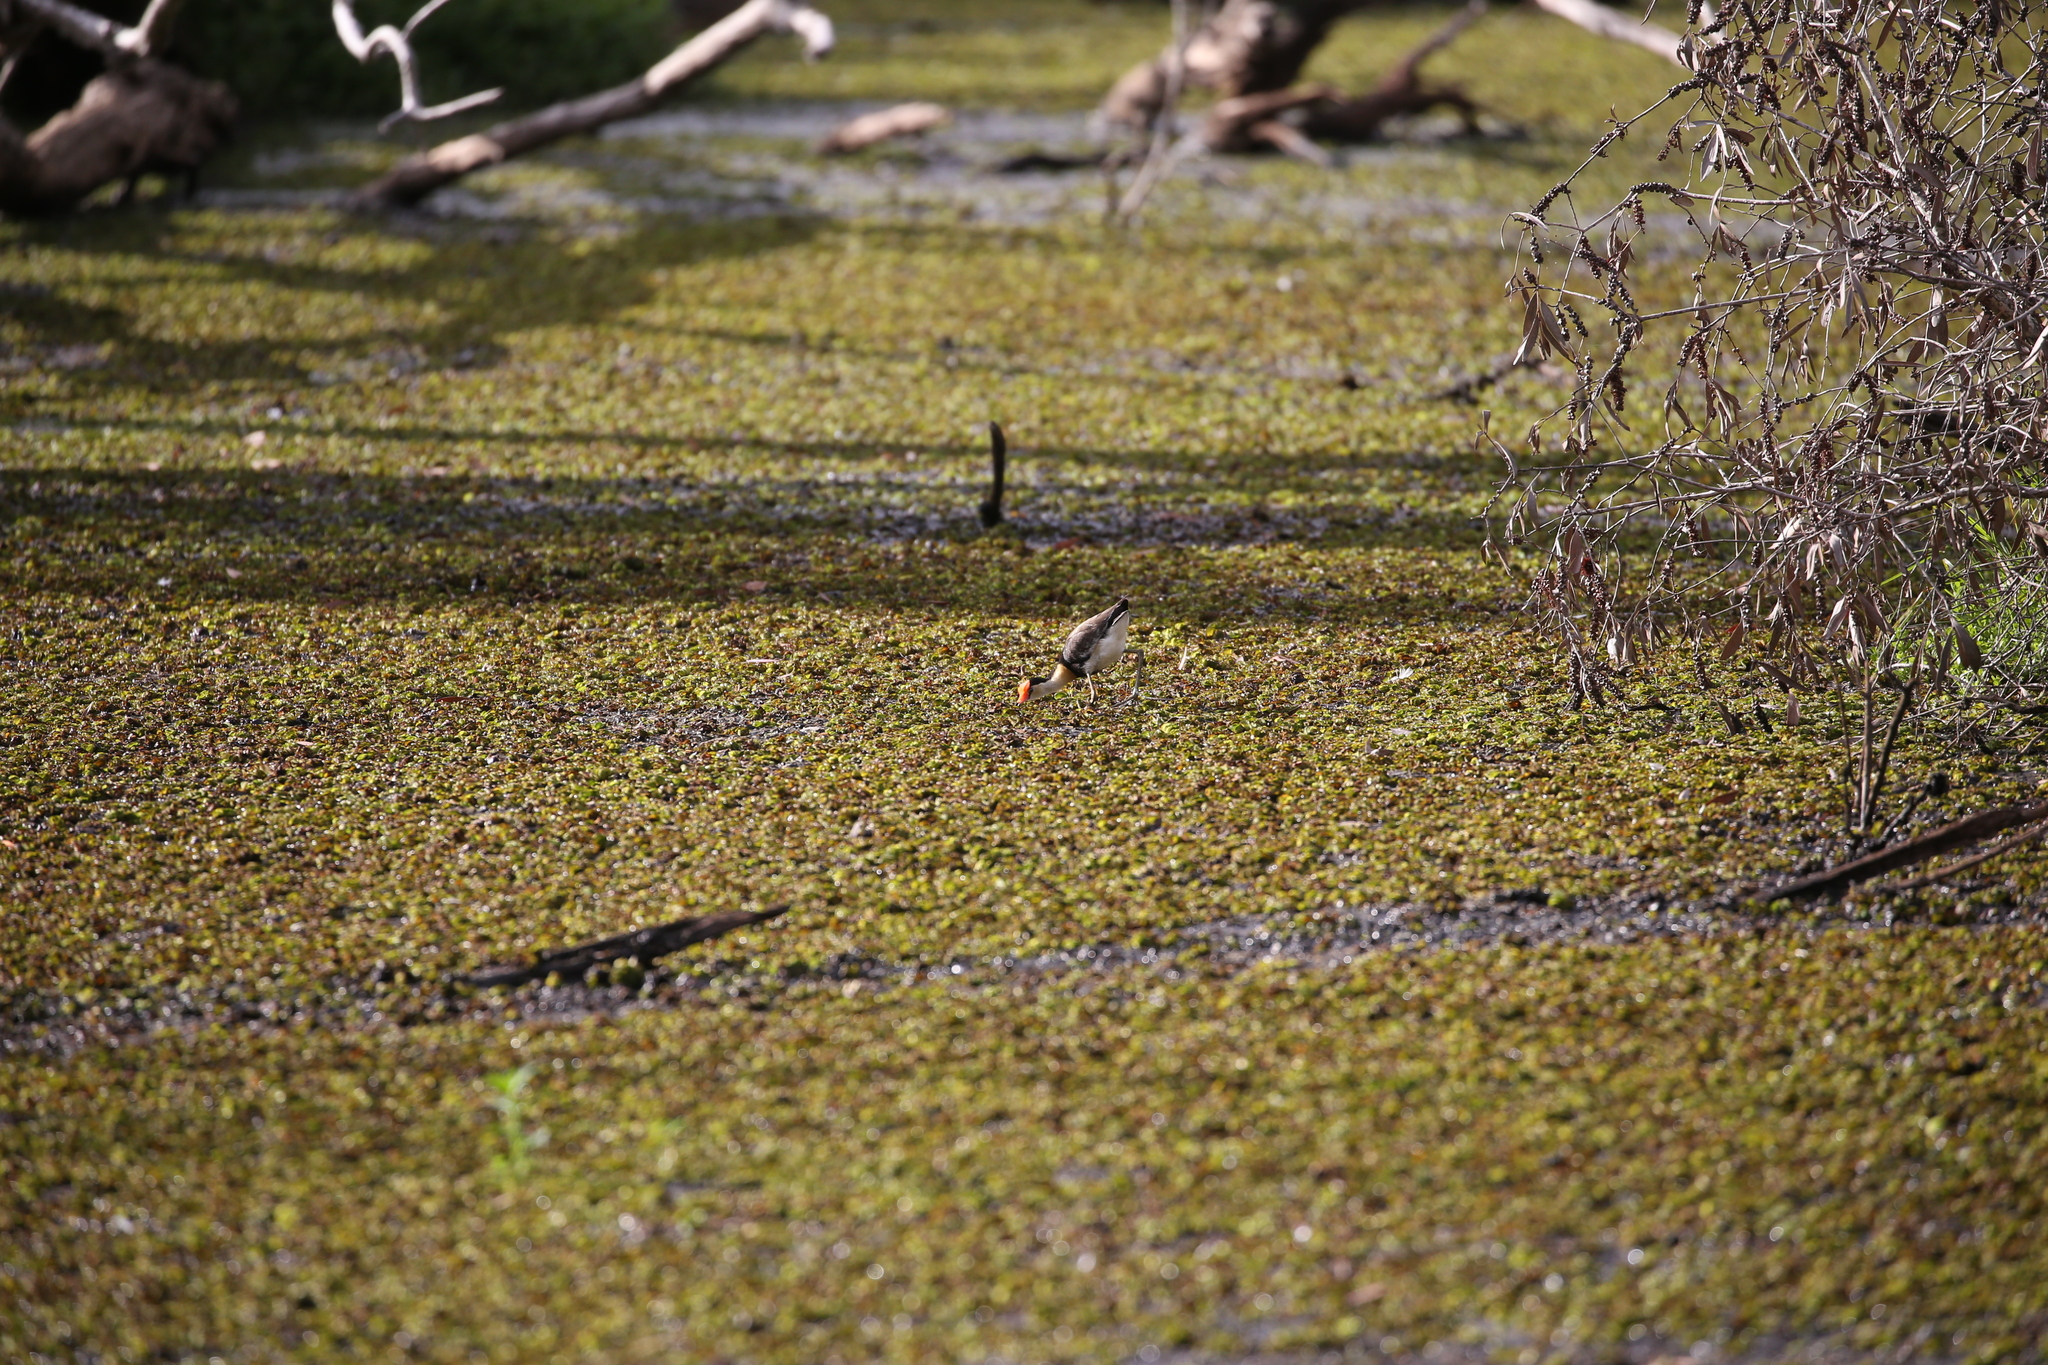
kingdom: Animalia
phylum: Chordata
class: Aves
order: Charadriiformes
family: Jacanidae
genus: Irediparra
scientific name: Irediparra gallinacea
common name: Comb-crested jacana
